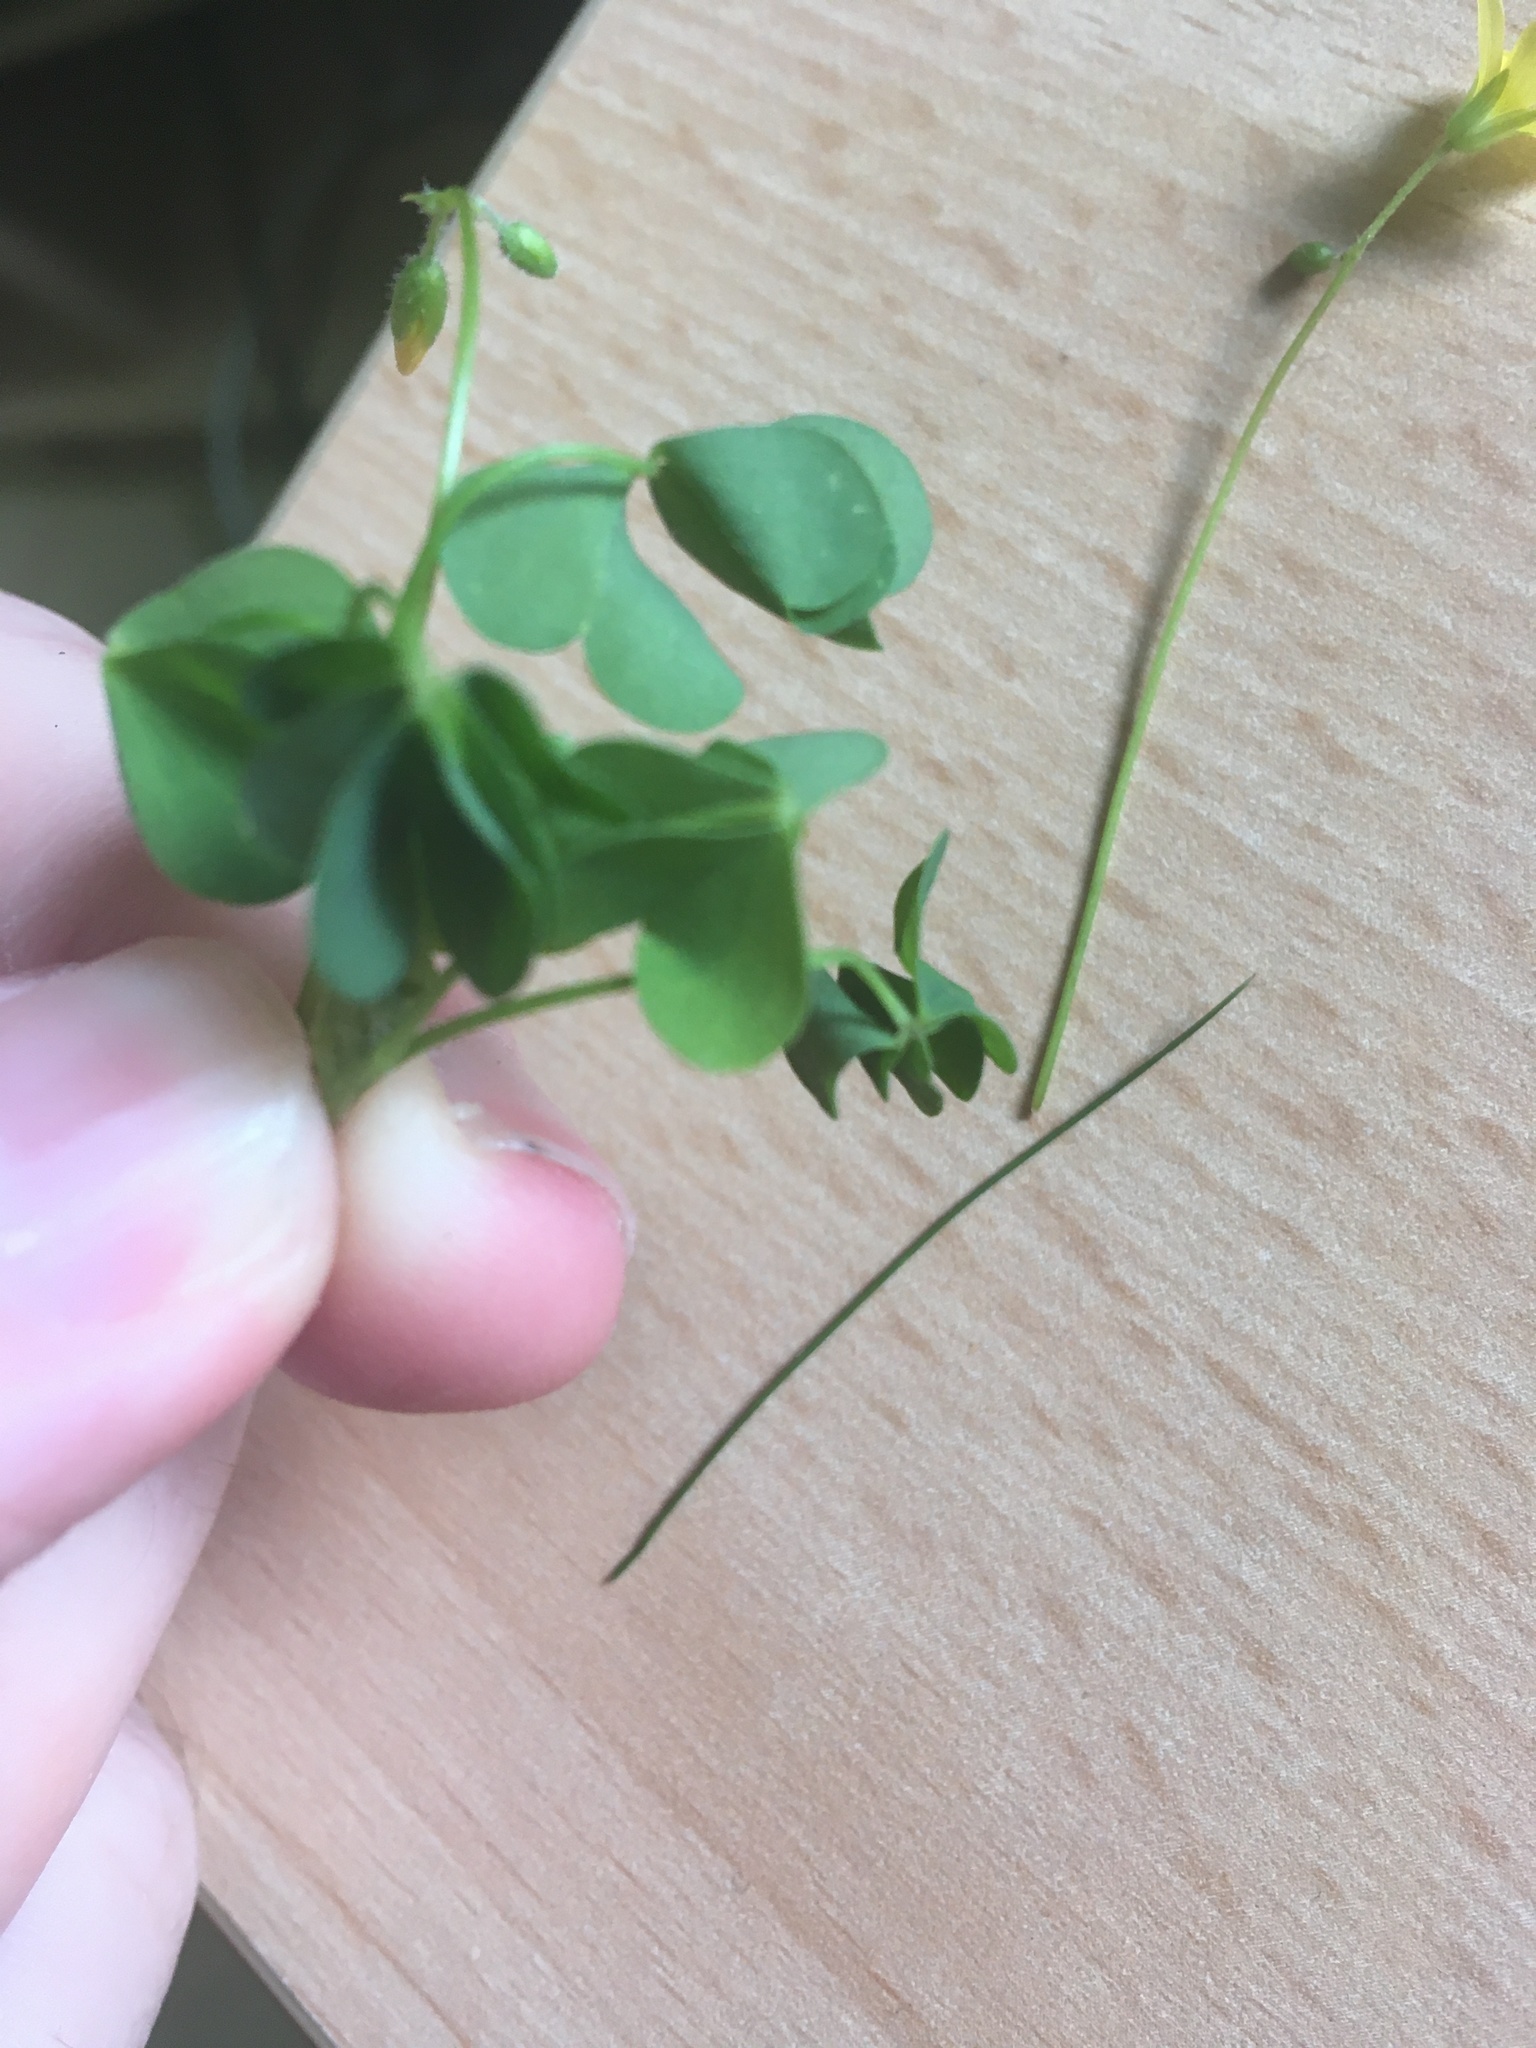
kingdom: Plantae
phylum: Tracheophyta
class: Magnoliopsida
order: Oxalidales
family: Oxalidaceae
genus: Oxalis
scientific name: Oxalis stricta
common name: Upright yellow-sorrel
